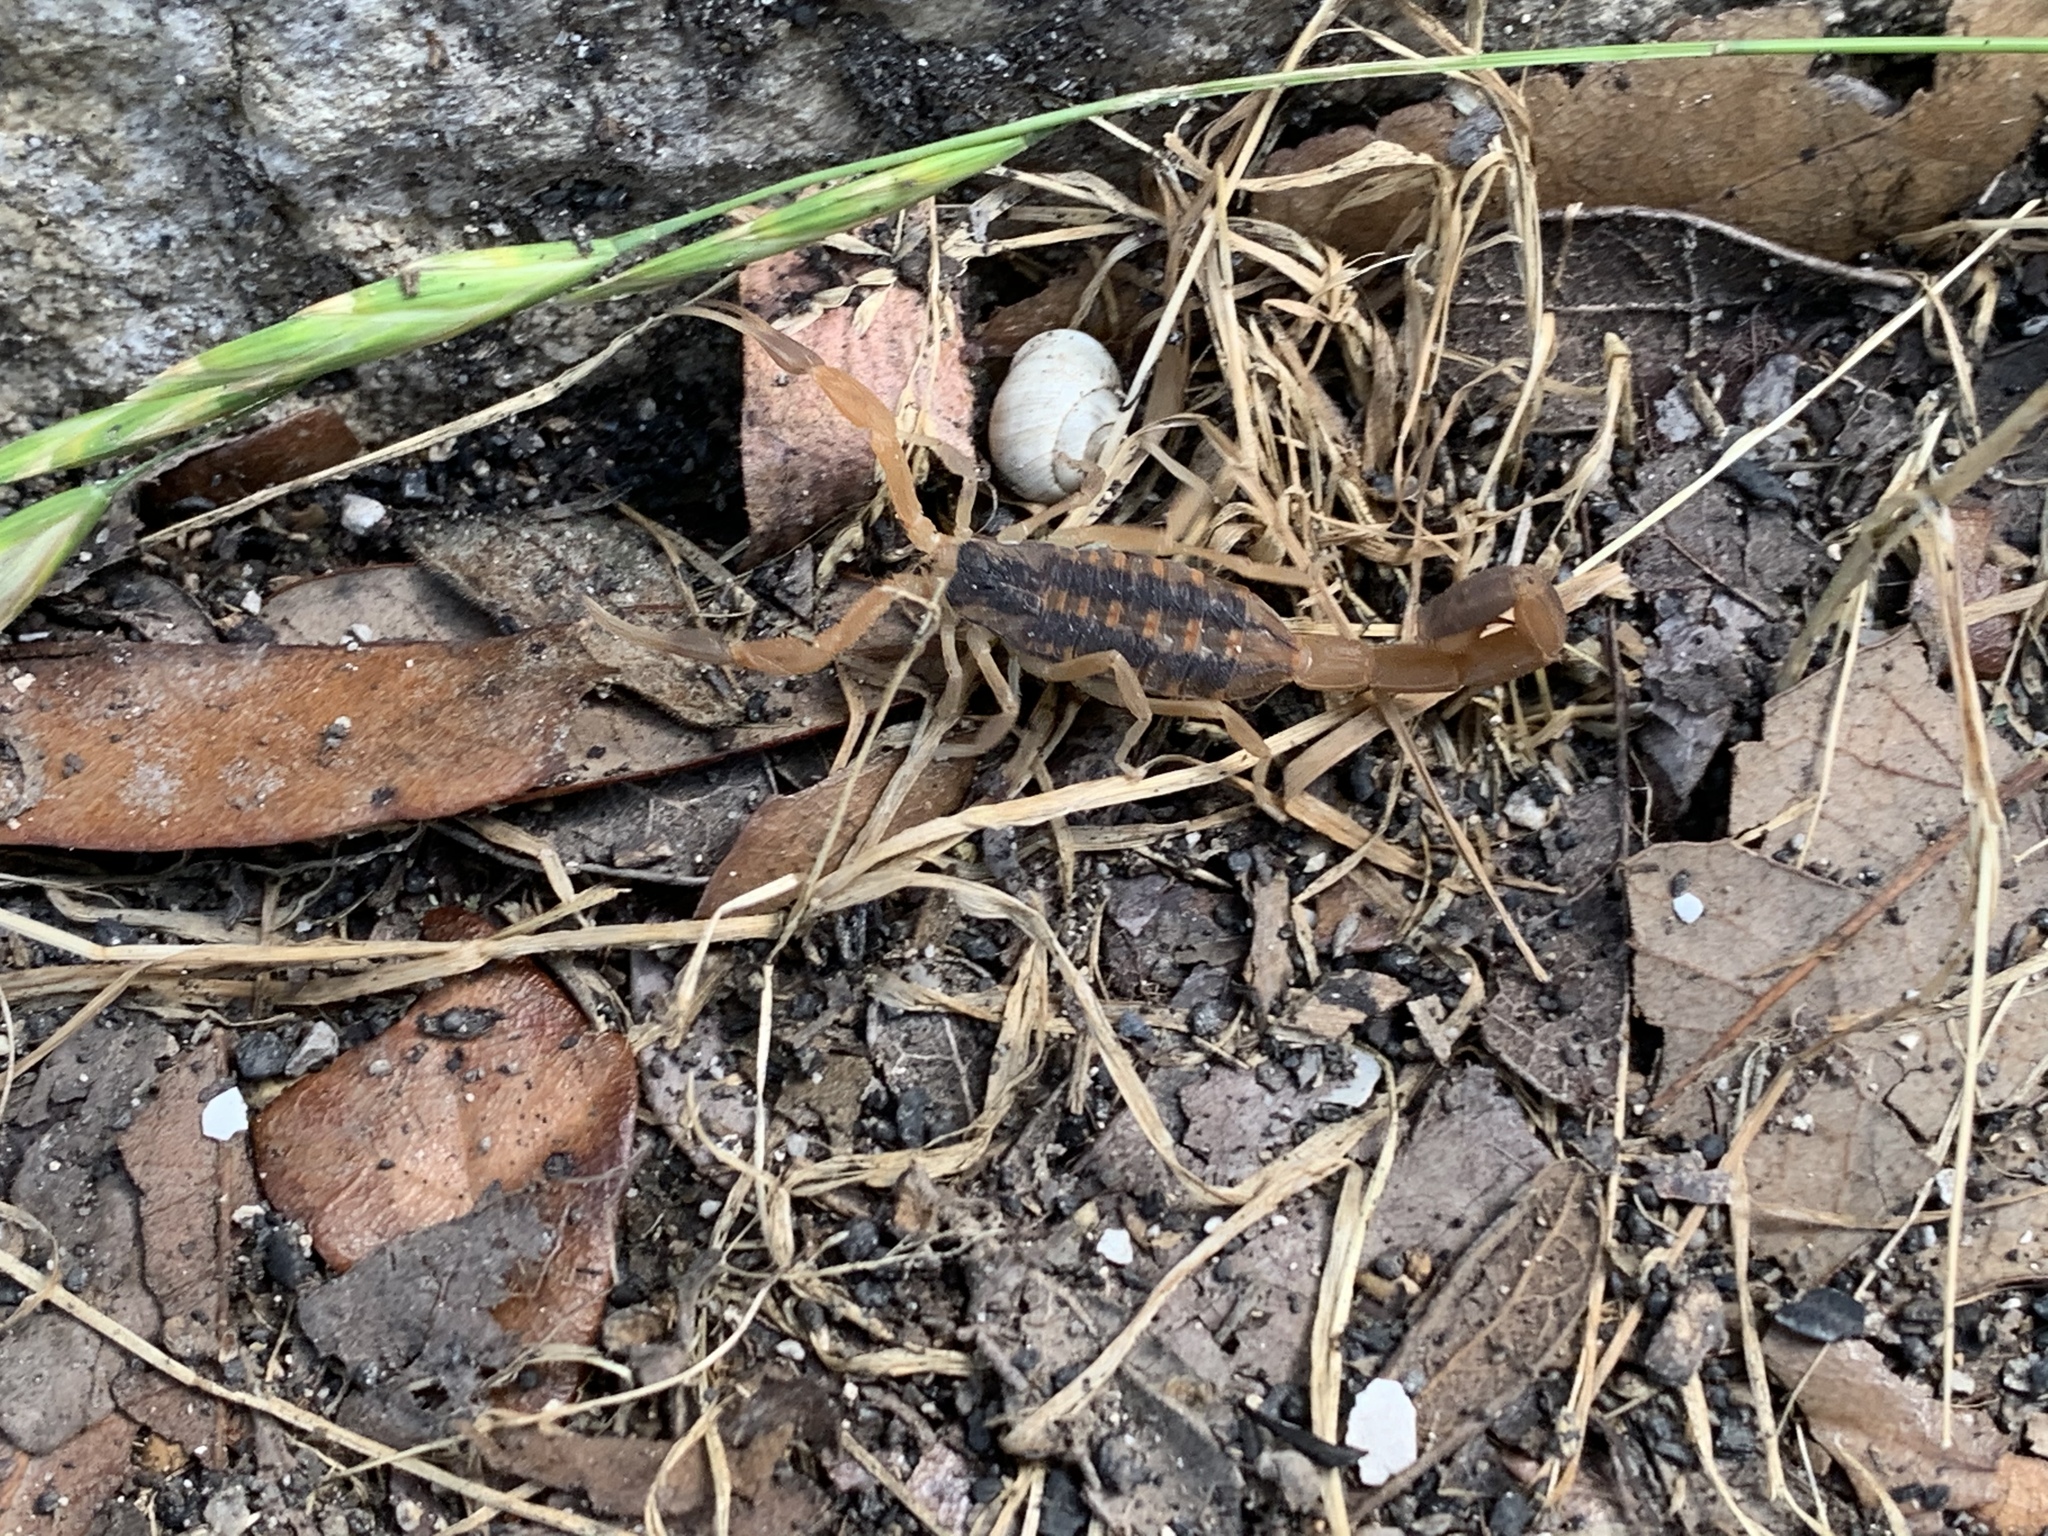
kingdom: Animalia
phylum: Arthropoda
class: Arachnida
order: Scorpiones
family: Buthidae
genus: Centruroides
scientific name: Centruroides vittatus
